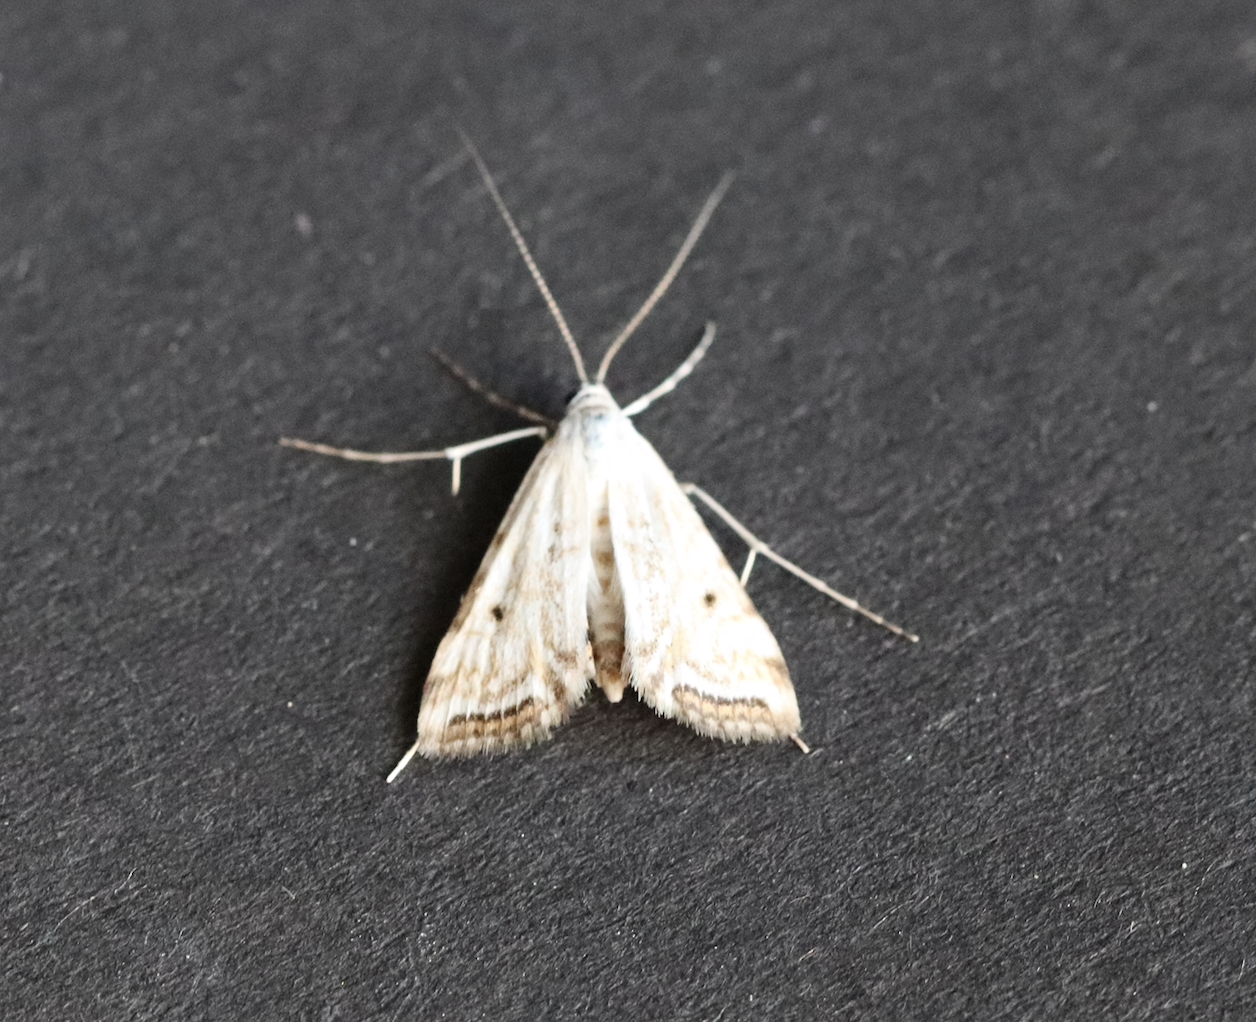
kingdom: Animalia
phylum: Arthropoda
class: Insecta
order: Lepidoptera
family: Crambidae
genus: Cataclysta
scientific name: Cataclysta lemnata
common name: Small china-mark
